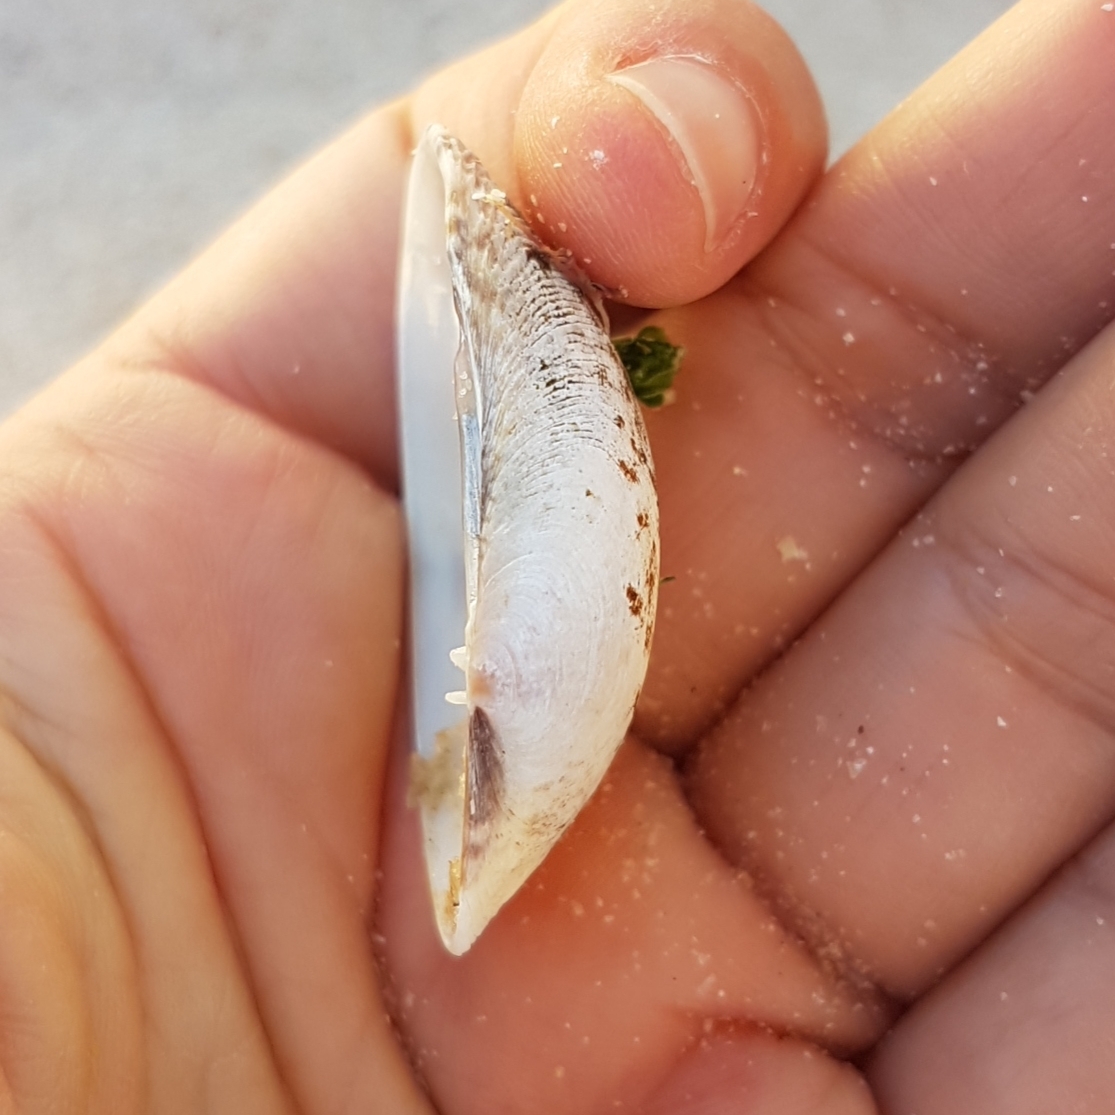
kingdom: Animalia
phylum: Mollusca
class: Bivalvia
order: Venerida
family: Veneridae
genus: Venerupis
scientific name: Venerupis corrugata
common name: Pullet carpet shell
